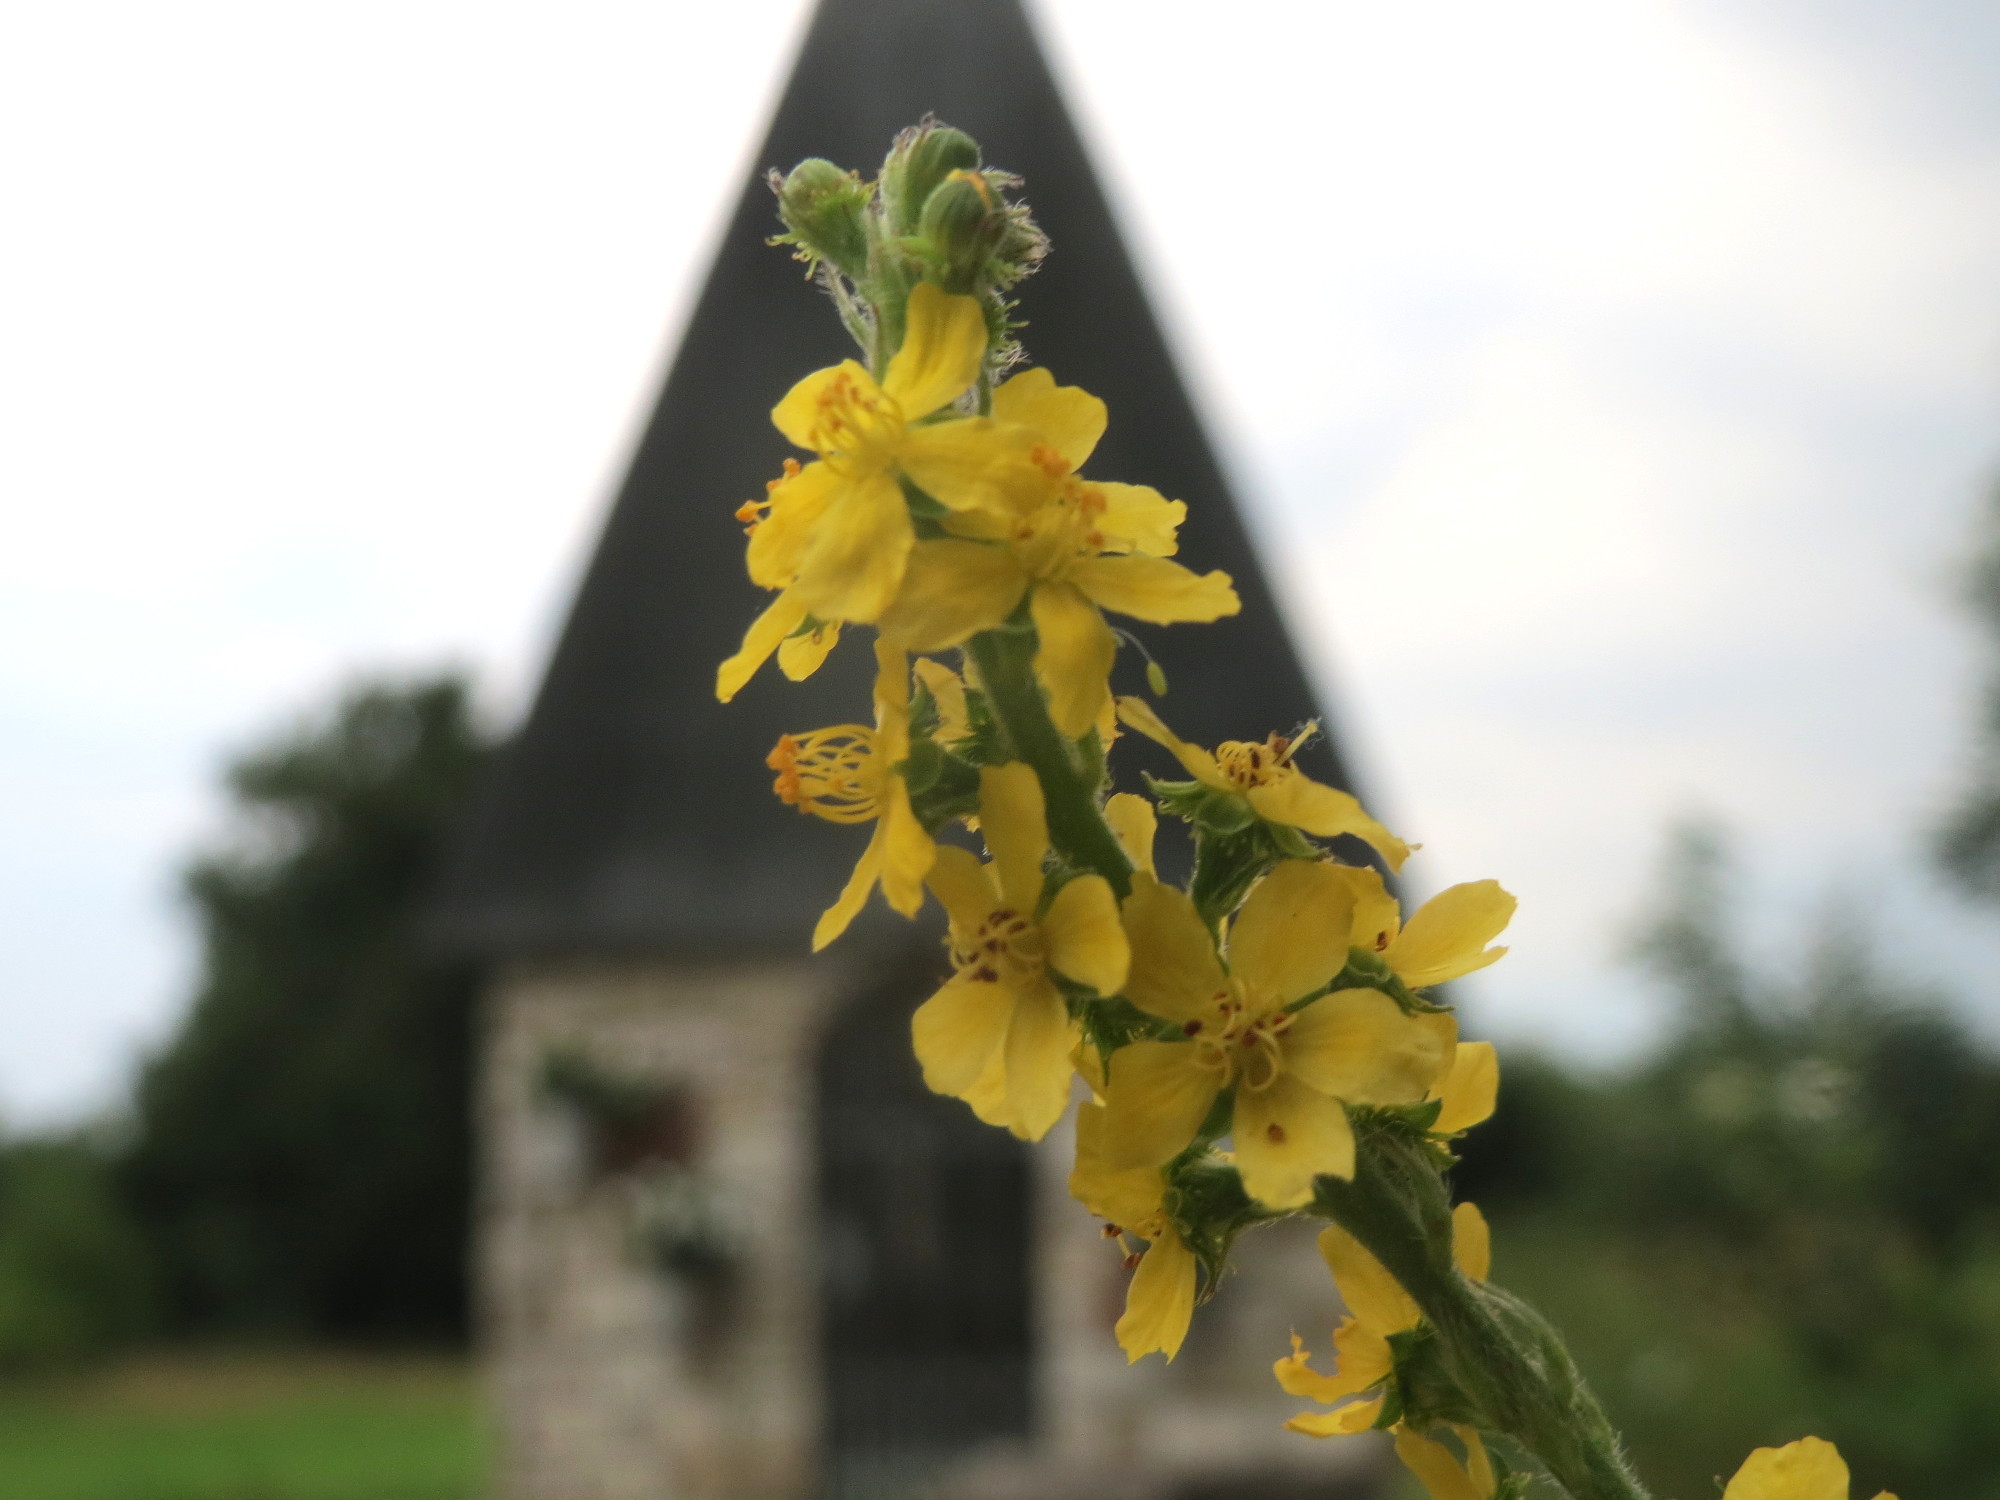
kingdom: Plantae
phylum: Tracheophyta
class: Magnoliopsida
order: Rosales
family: Rosaceae
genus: Agrimonia
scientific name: Agrimonia eupatoria
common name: Agrimony
